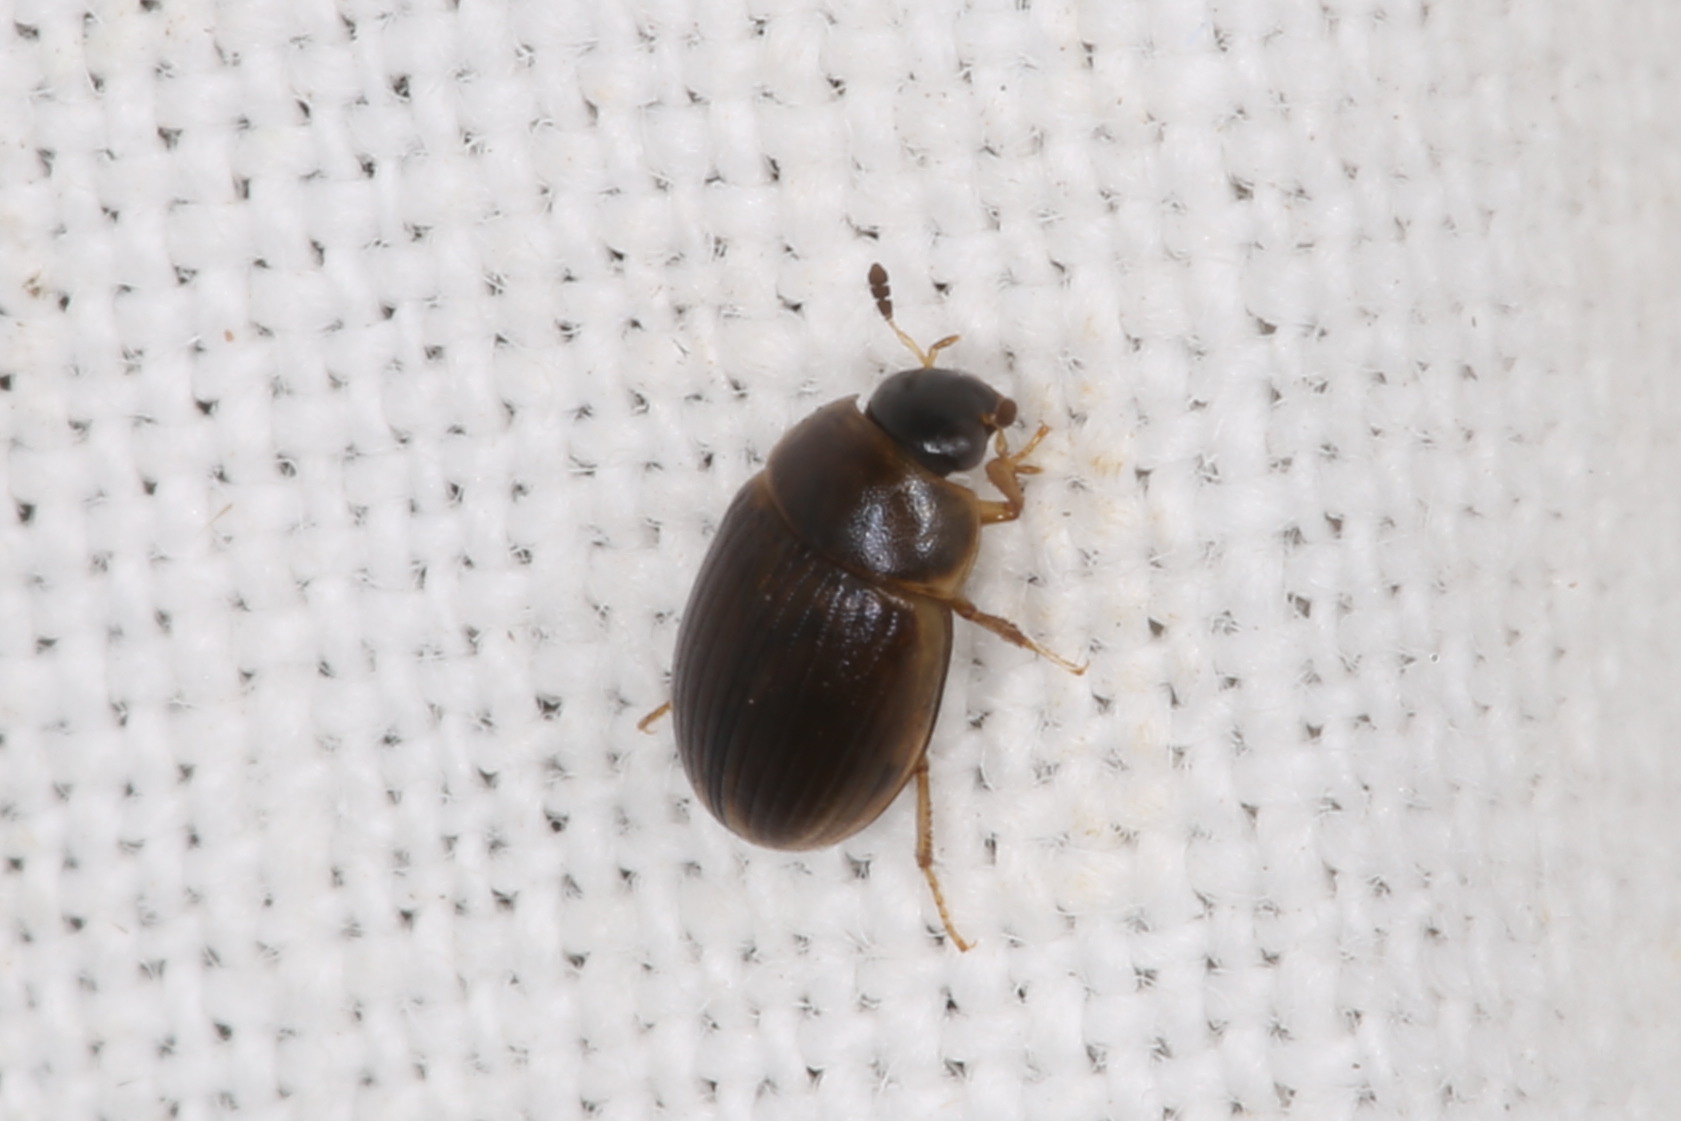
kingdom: Animalia
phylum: Arthropoda
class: Insecta
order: Coleoptera
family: Hydrophilidae
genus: Cercyon
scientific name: Cercyon laminatus
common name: Water scavenger beetle
